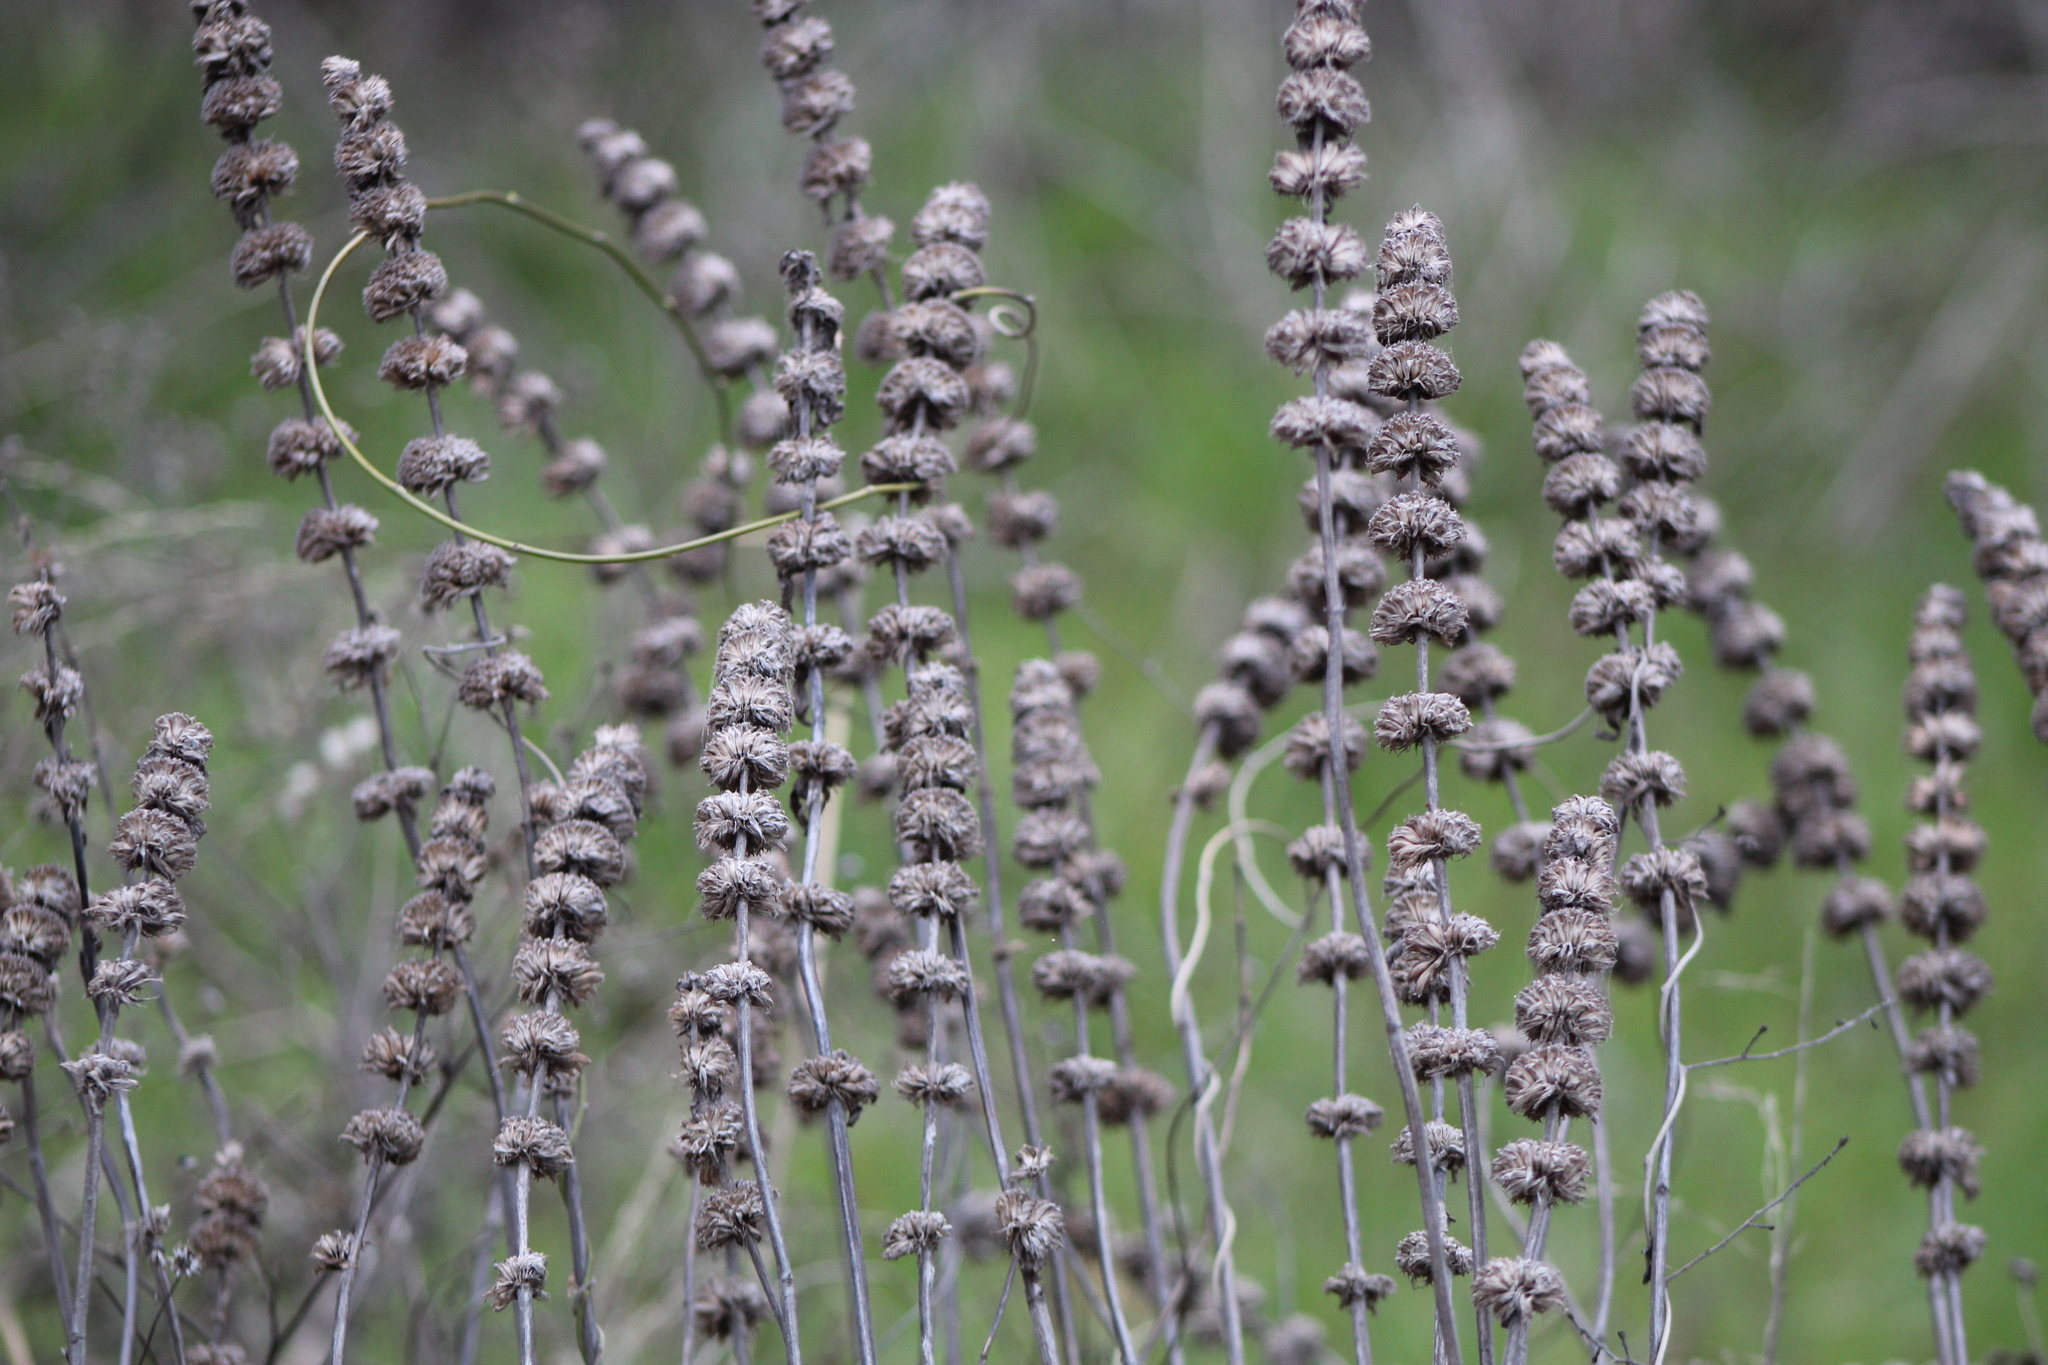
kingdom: Plantae
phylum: Tracheophyta
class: Magnoliopsida
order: Lamiales
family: Lamiaceae
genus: Monarda
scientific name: Monarda punctata
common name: Dotted monarda
